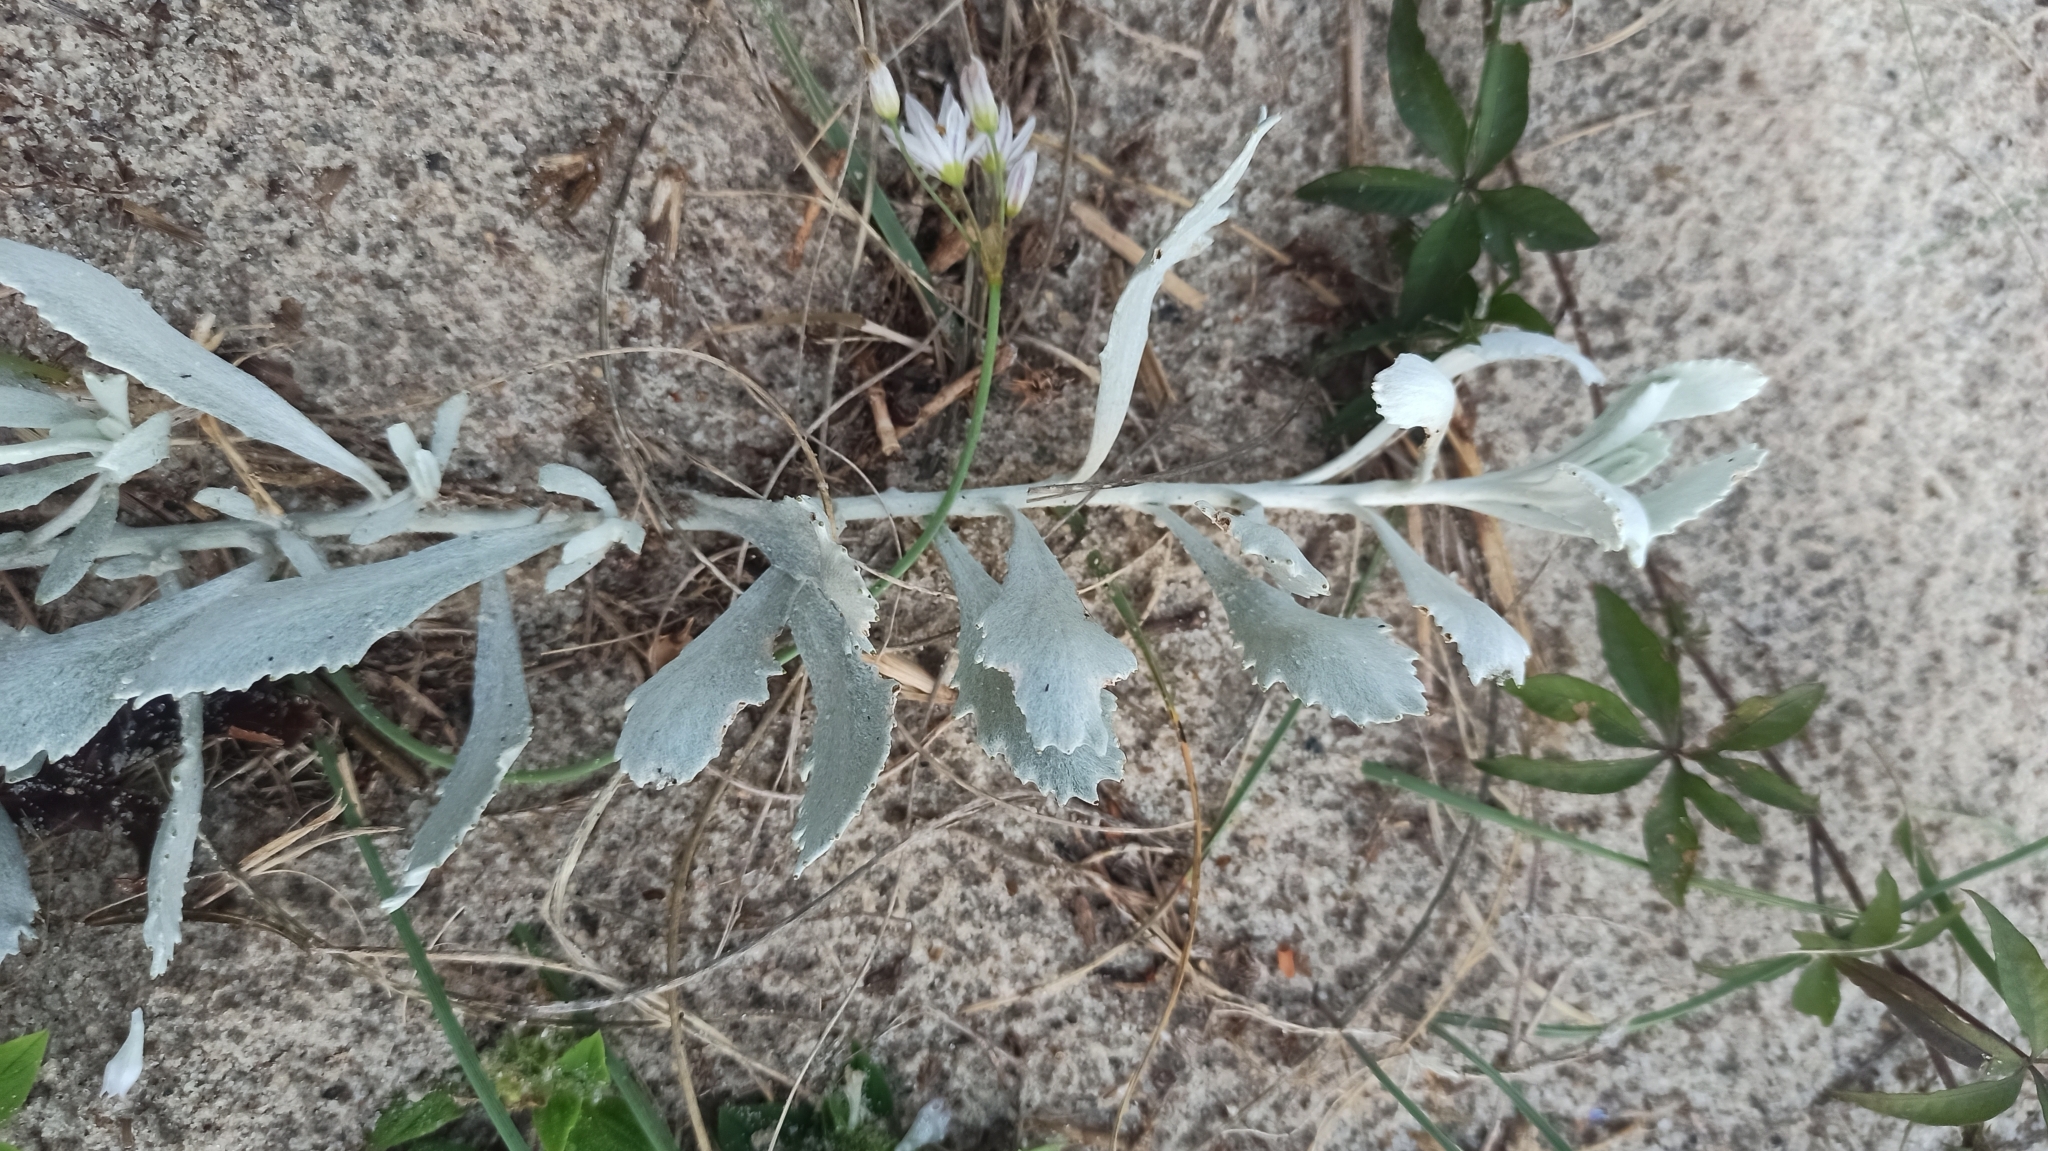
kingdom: Plantae
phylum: Tracheophyta
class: Magnoliopsida
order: Asterales
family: Asteraceae
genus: Senecio
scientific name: Senecio crassiflorus
